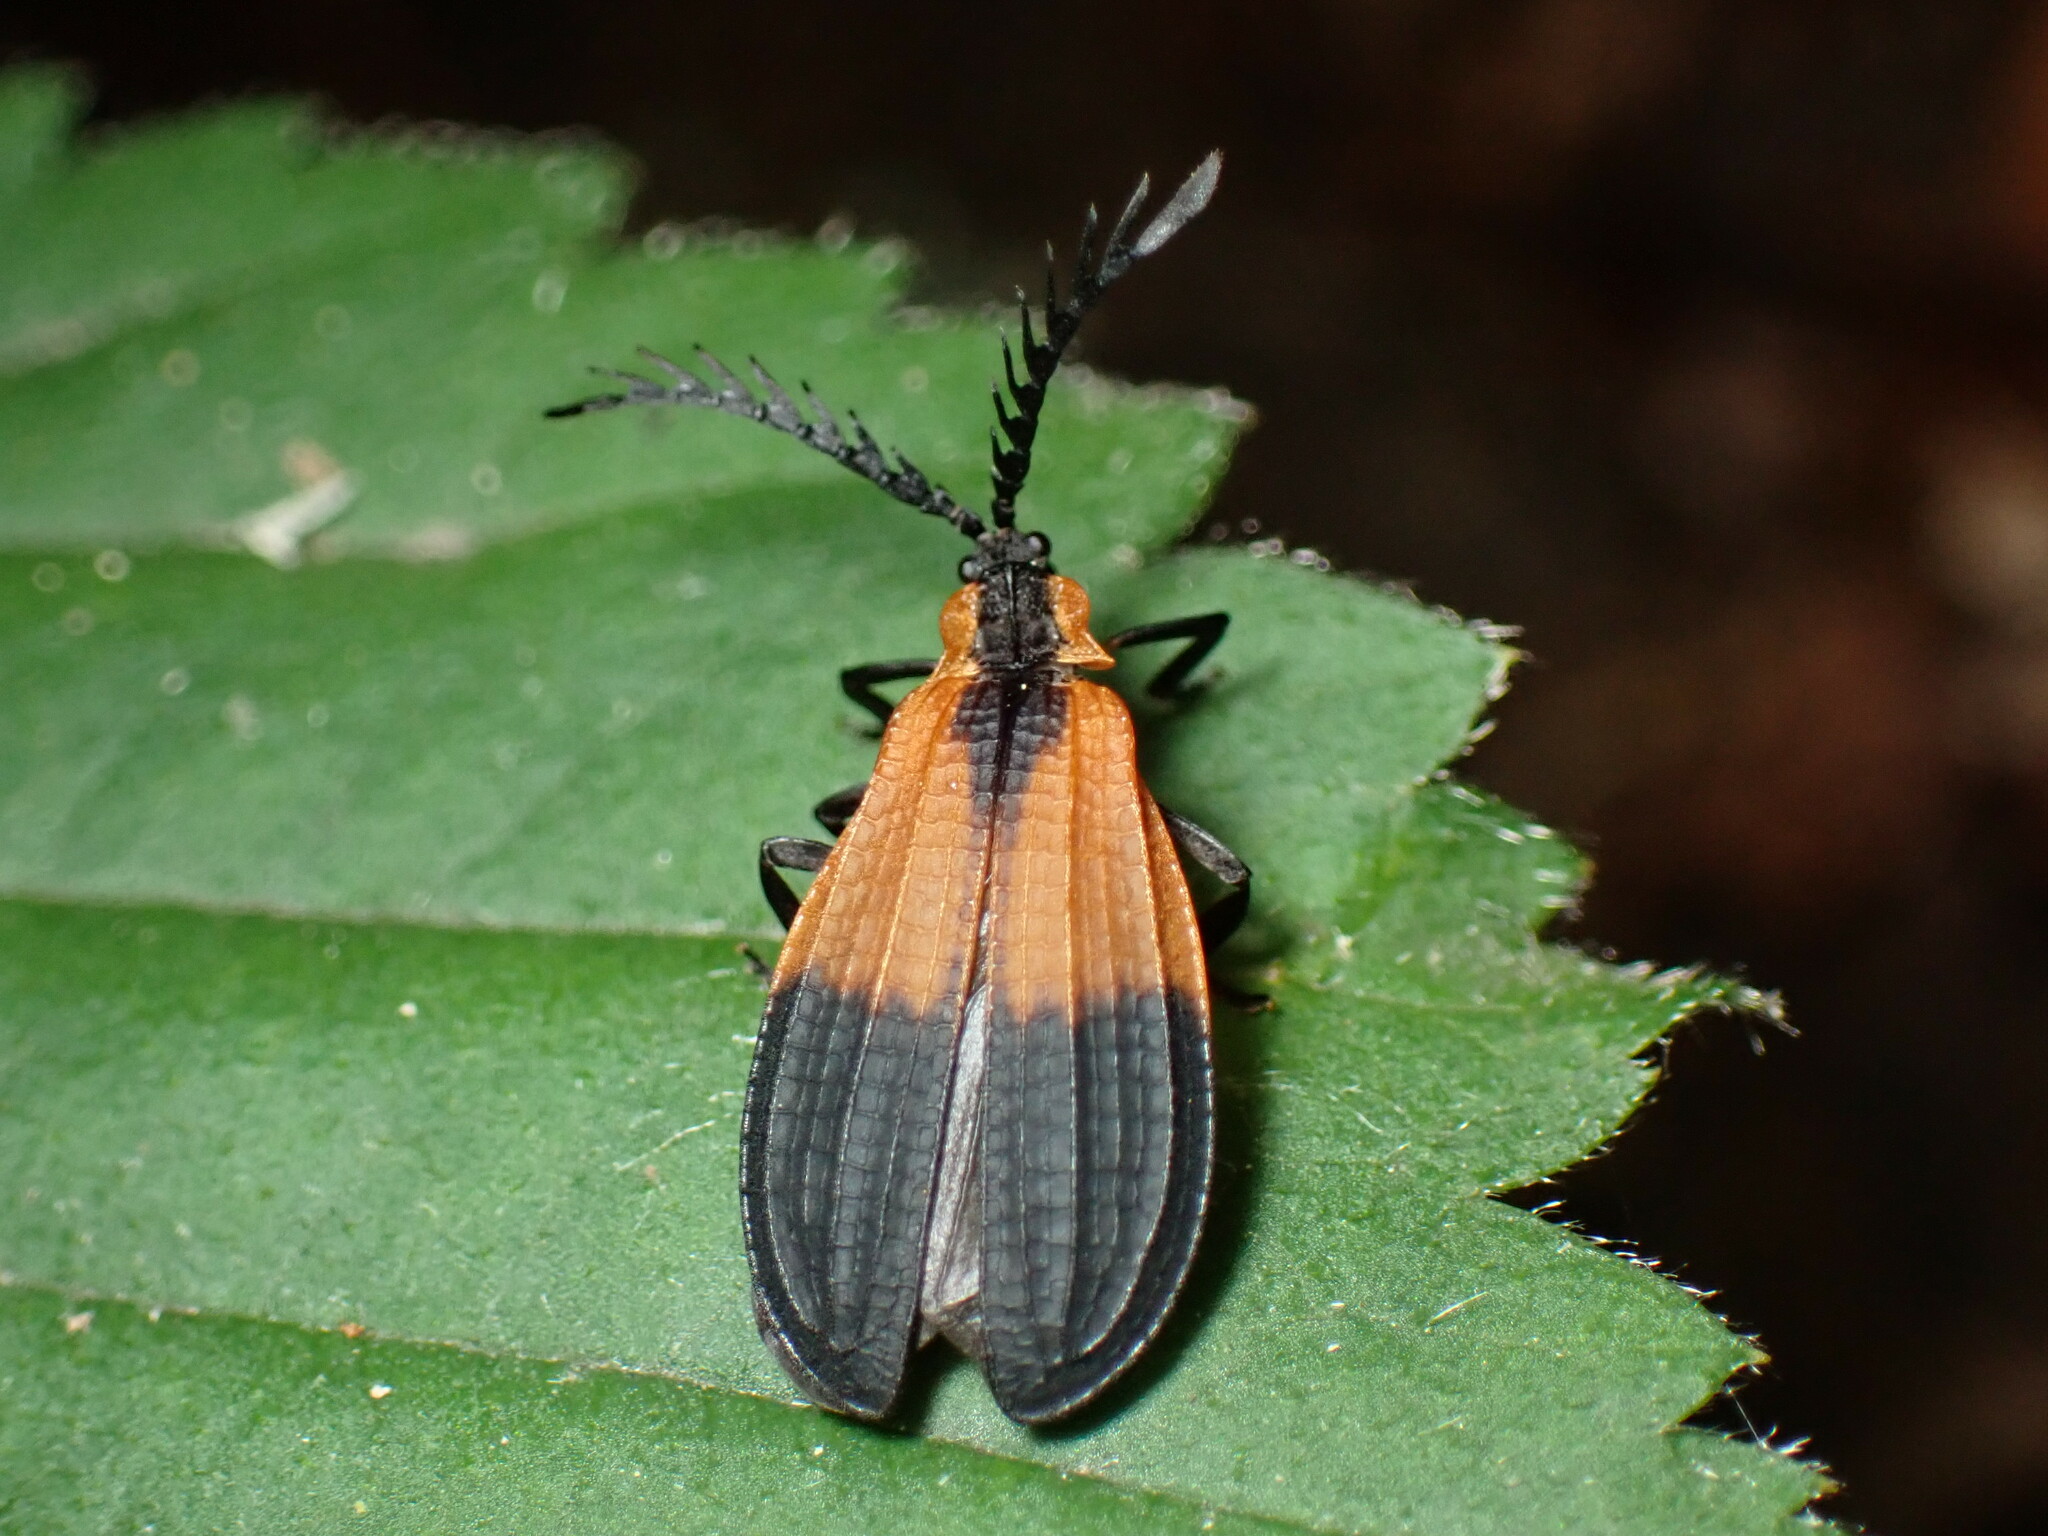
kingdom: Animalia
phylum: Arthropoda
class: Insecta
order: Coleoptera
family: Lycidae
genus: Caenia
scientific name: Caenia dimidiata
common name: Terminal net-winged beetle
